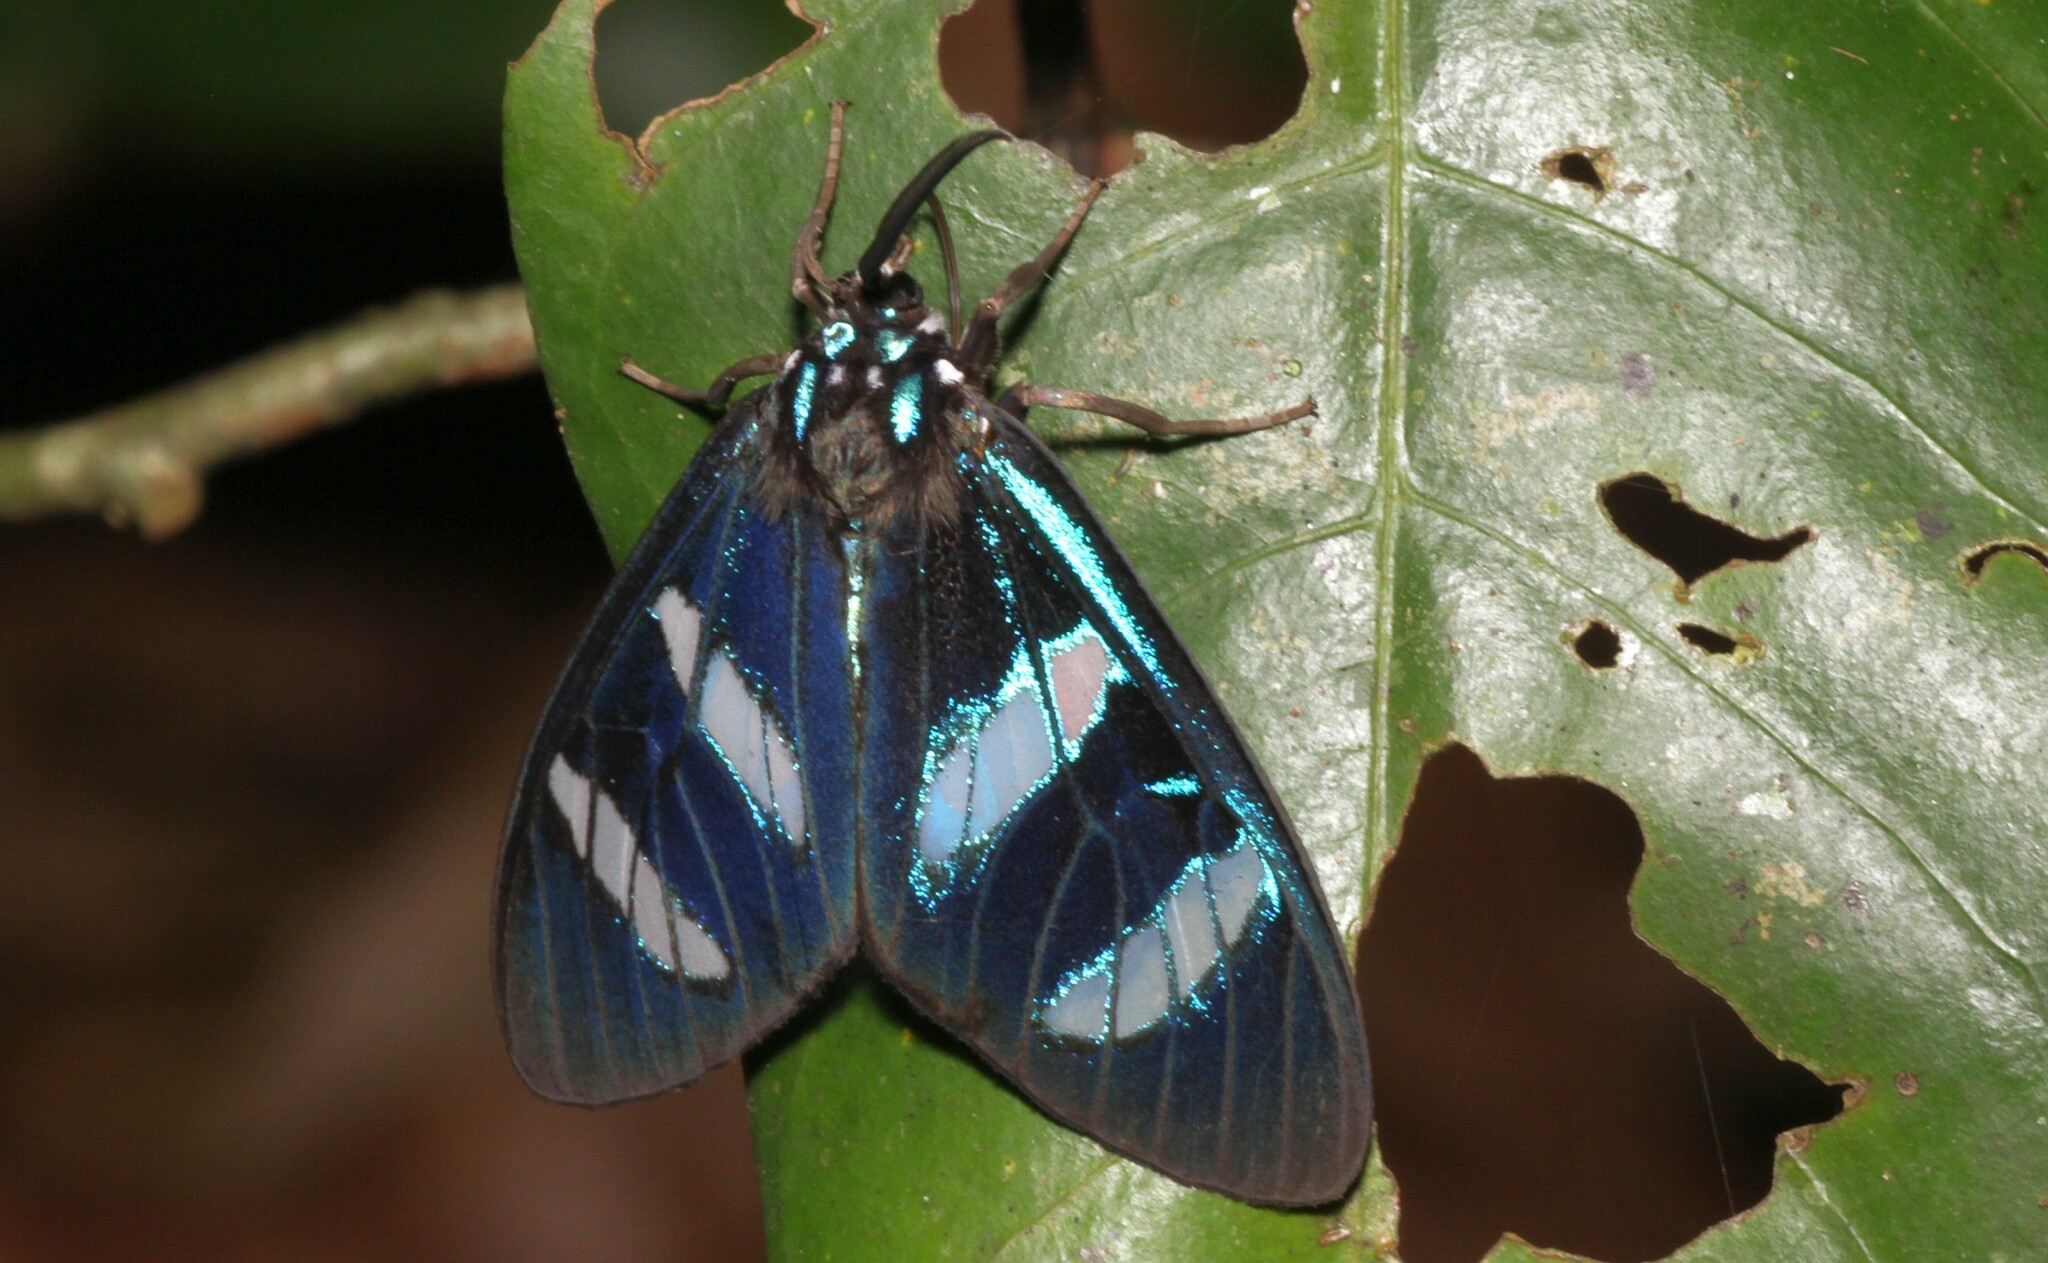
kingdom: Animalia
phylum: Arthropoda
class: Insecta
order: Lepidoptera
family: Erebidae
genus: Agyrtidia
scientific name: Agyrtidia uranophila
